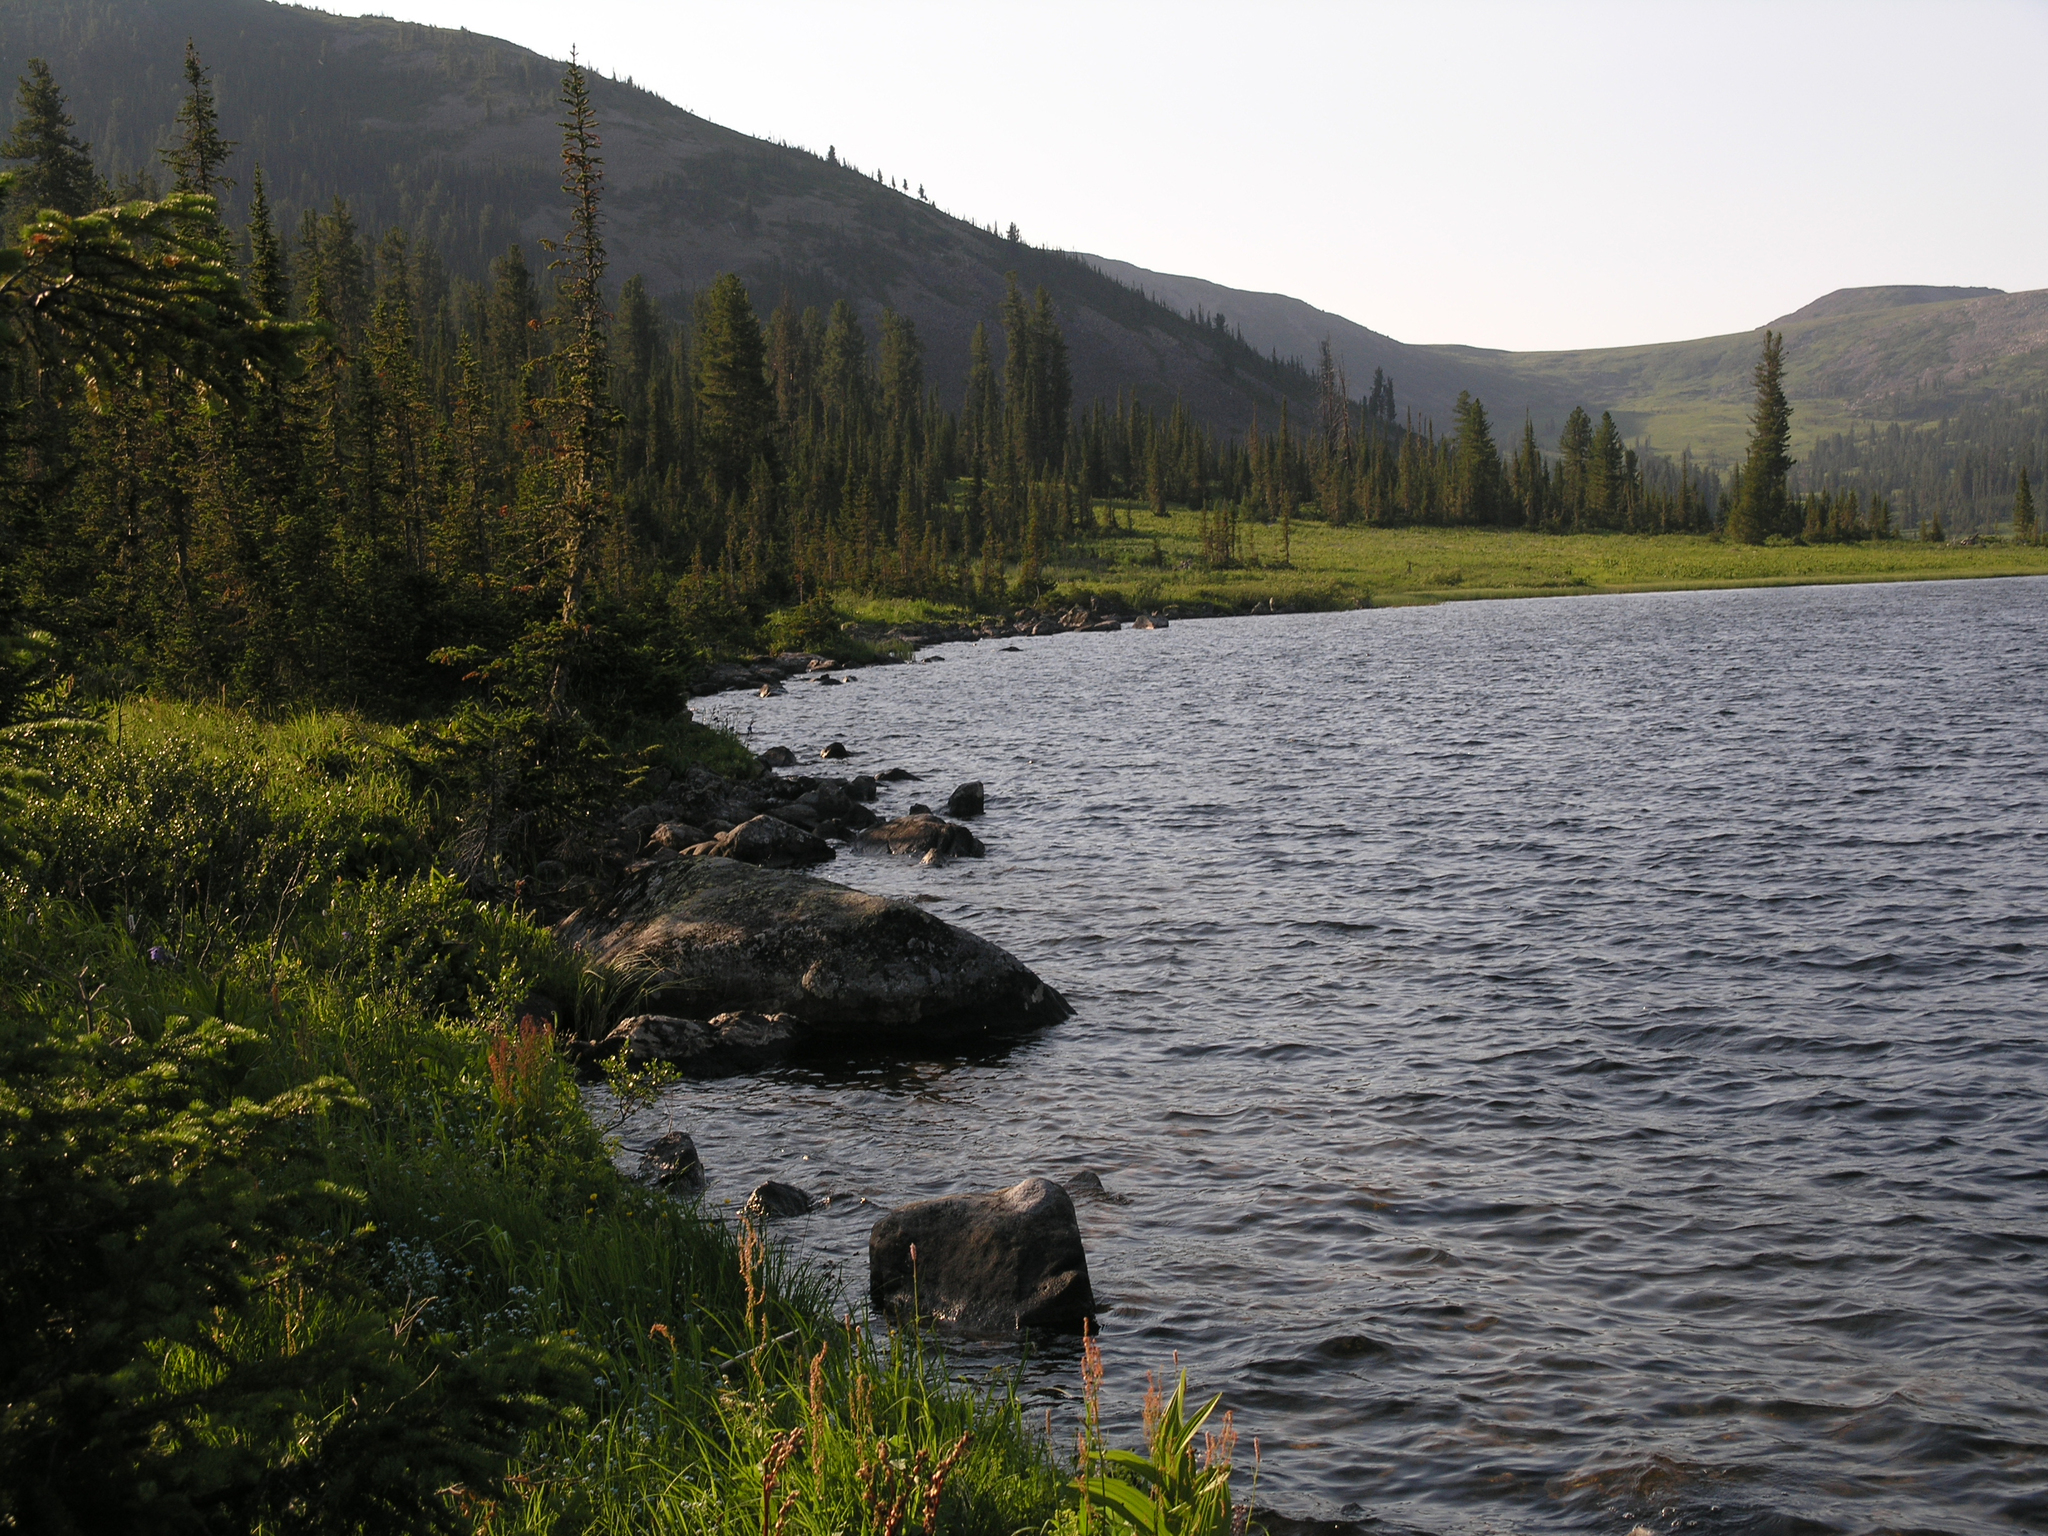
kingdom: Plantae
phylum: Tracheophyta
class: Pinopsida
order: Pinales
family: Pinaceae
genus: Abies
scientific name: Abies sibirica
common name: Siberian fir
